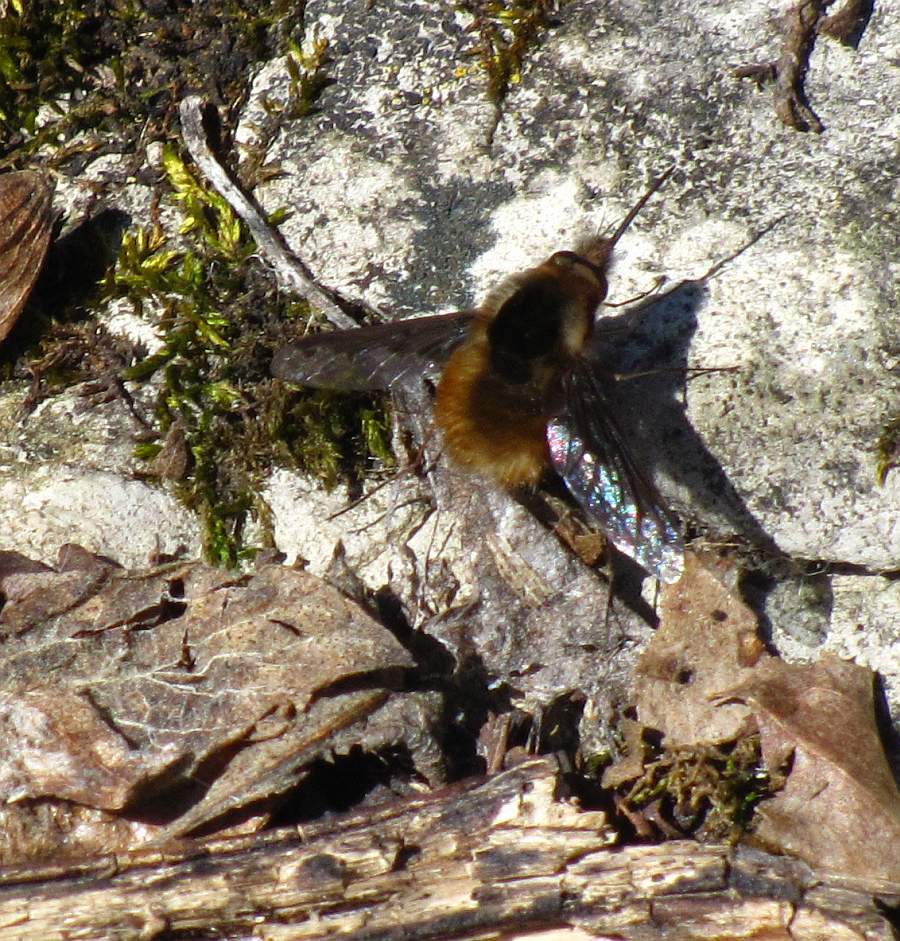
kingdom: Animalia
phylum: Arthropoda
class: Insecta
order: Diptera
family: Bombyliidae
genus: Bombylius
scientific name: Bombylius major
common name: Bee fly
